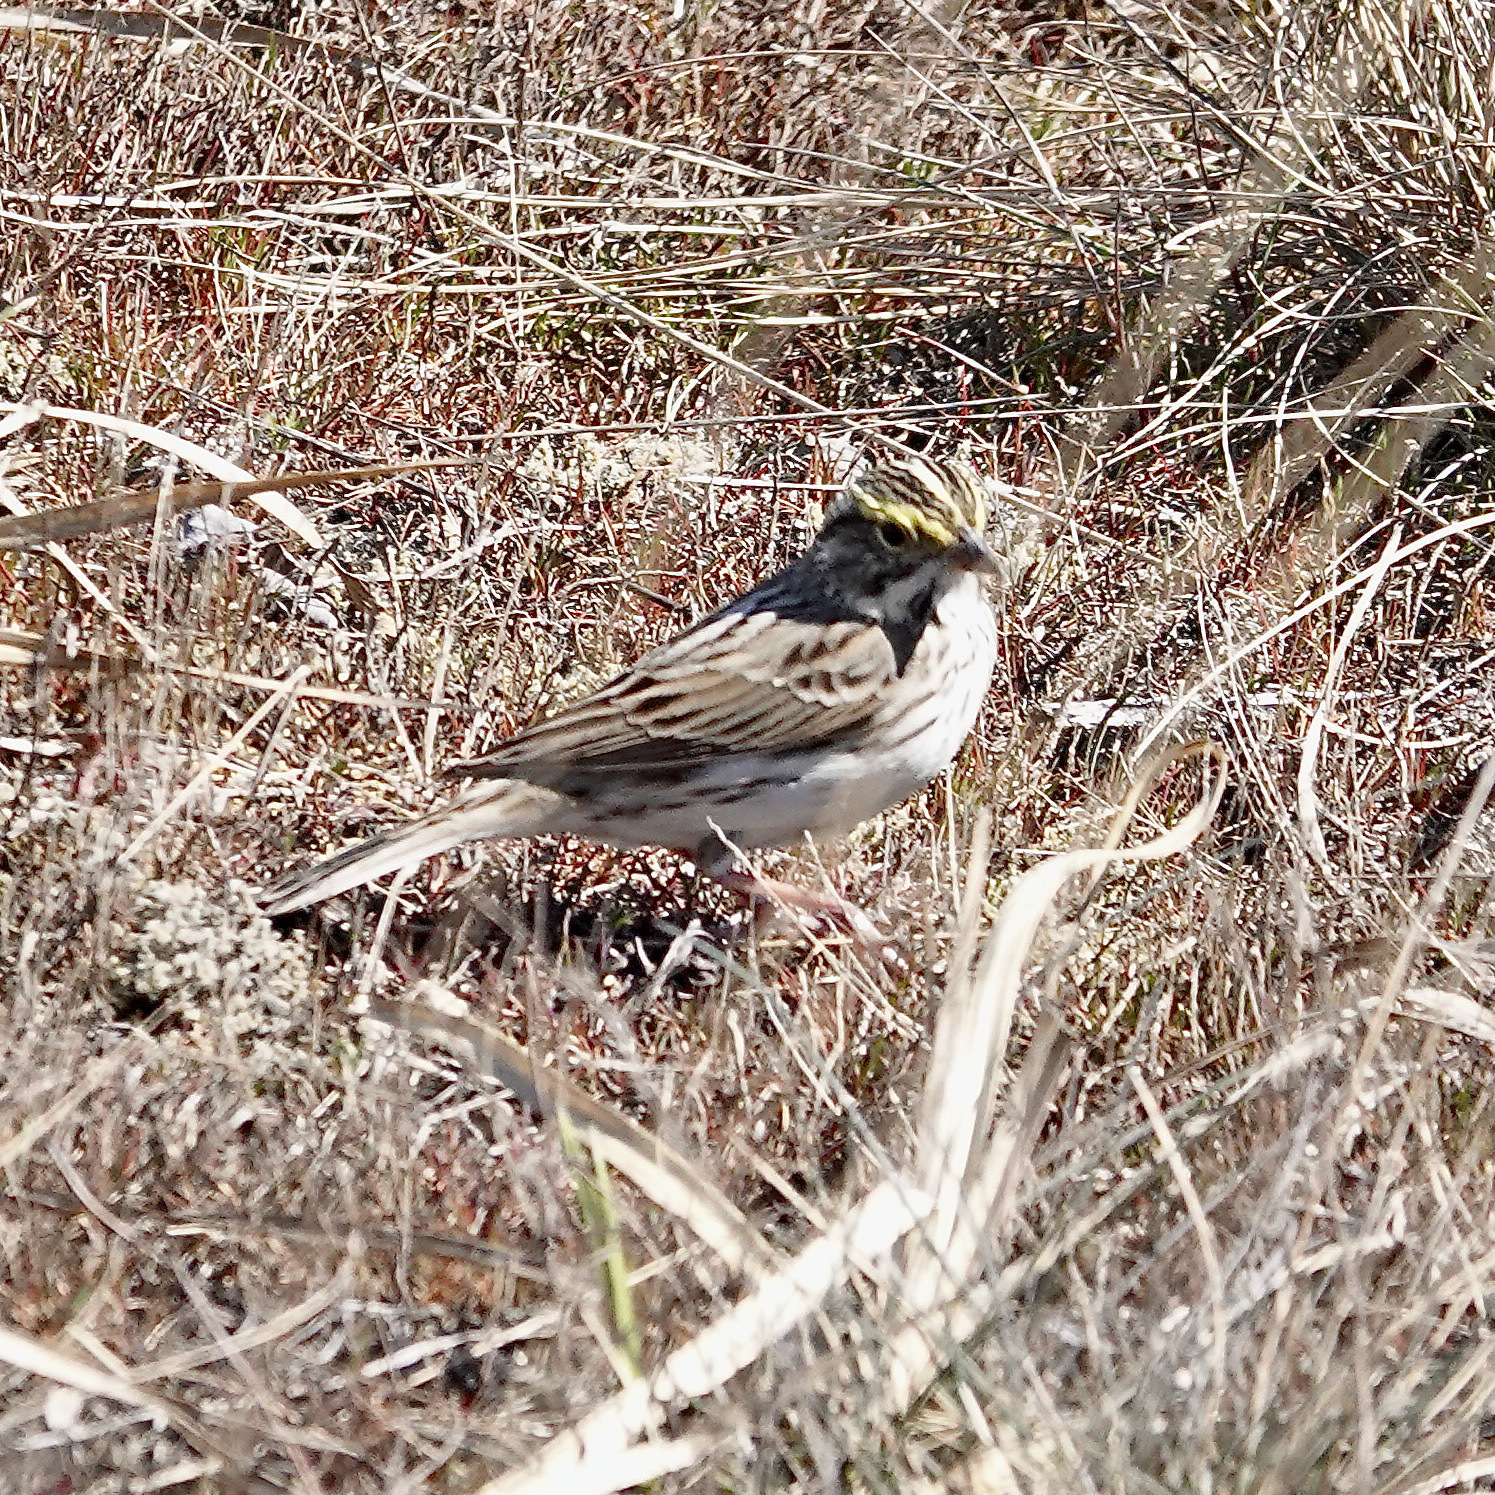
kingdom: Animalia
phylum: Chordata
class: Aves
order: Passeriformes
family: Passerellidae
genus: Passerculus
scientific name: Passerculus sandwichensis
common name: Savannah sparrow
